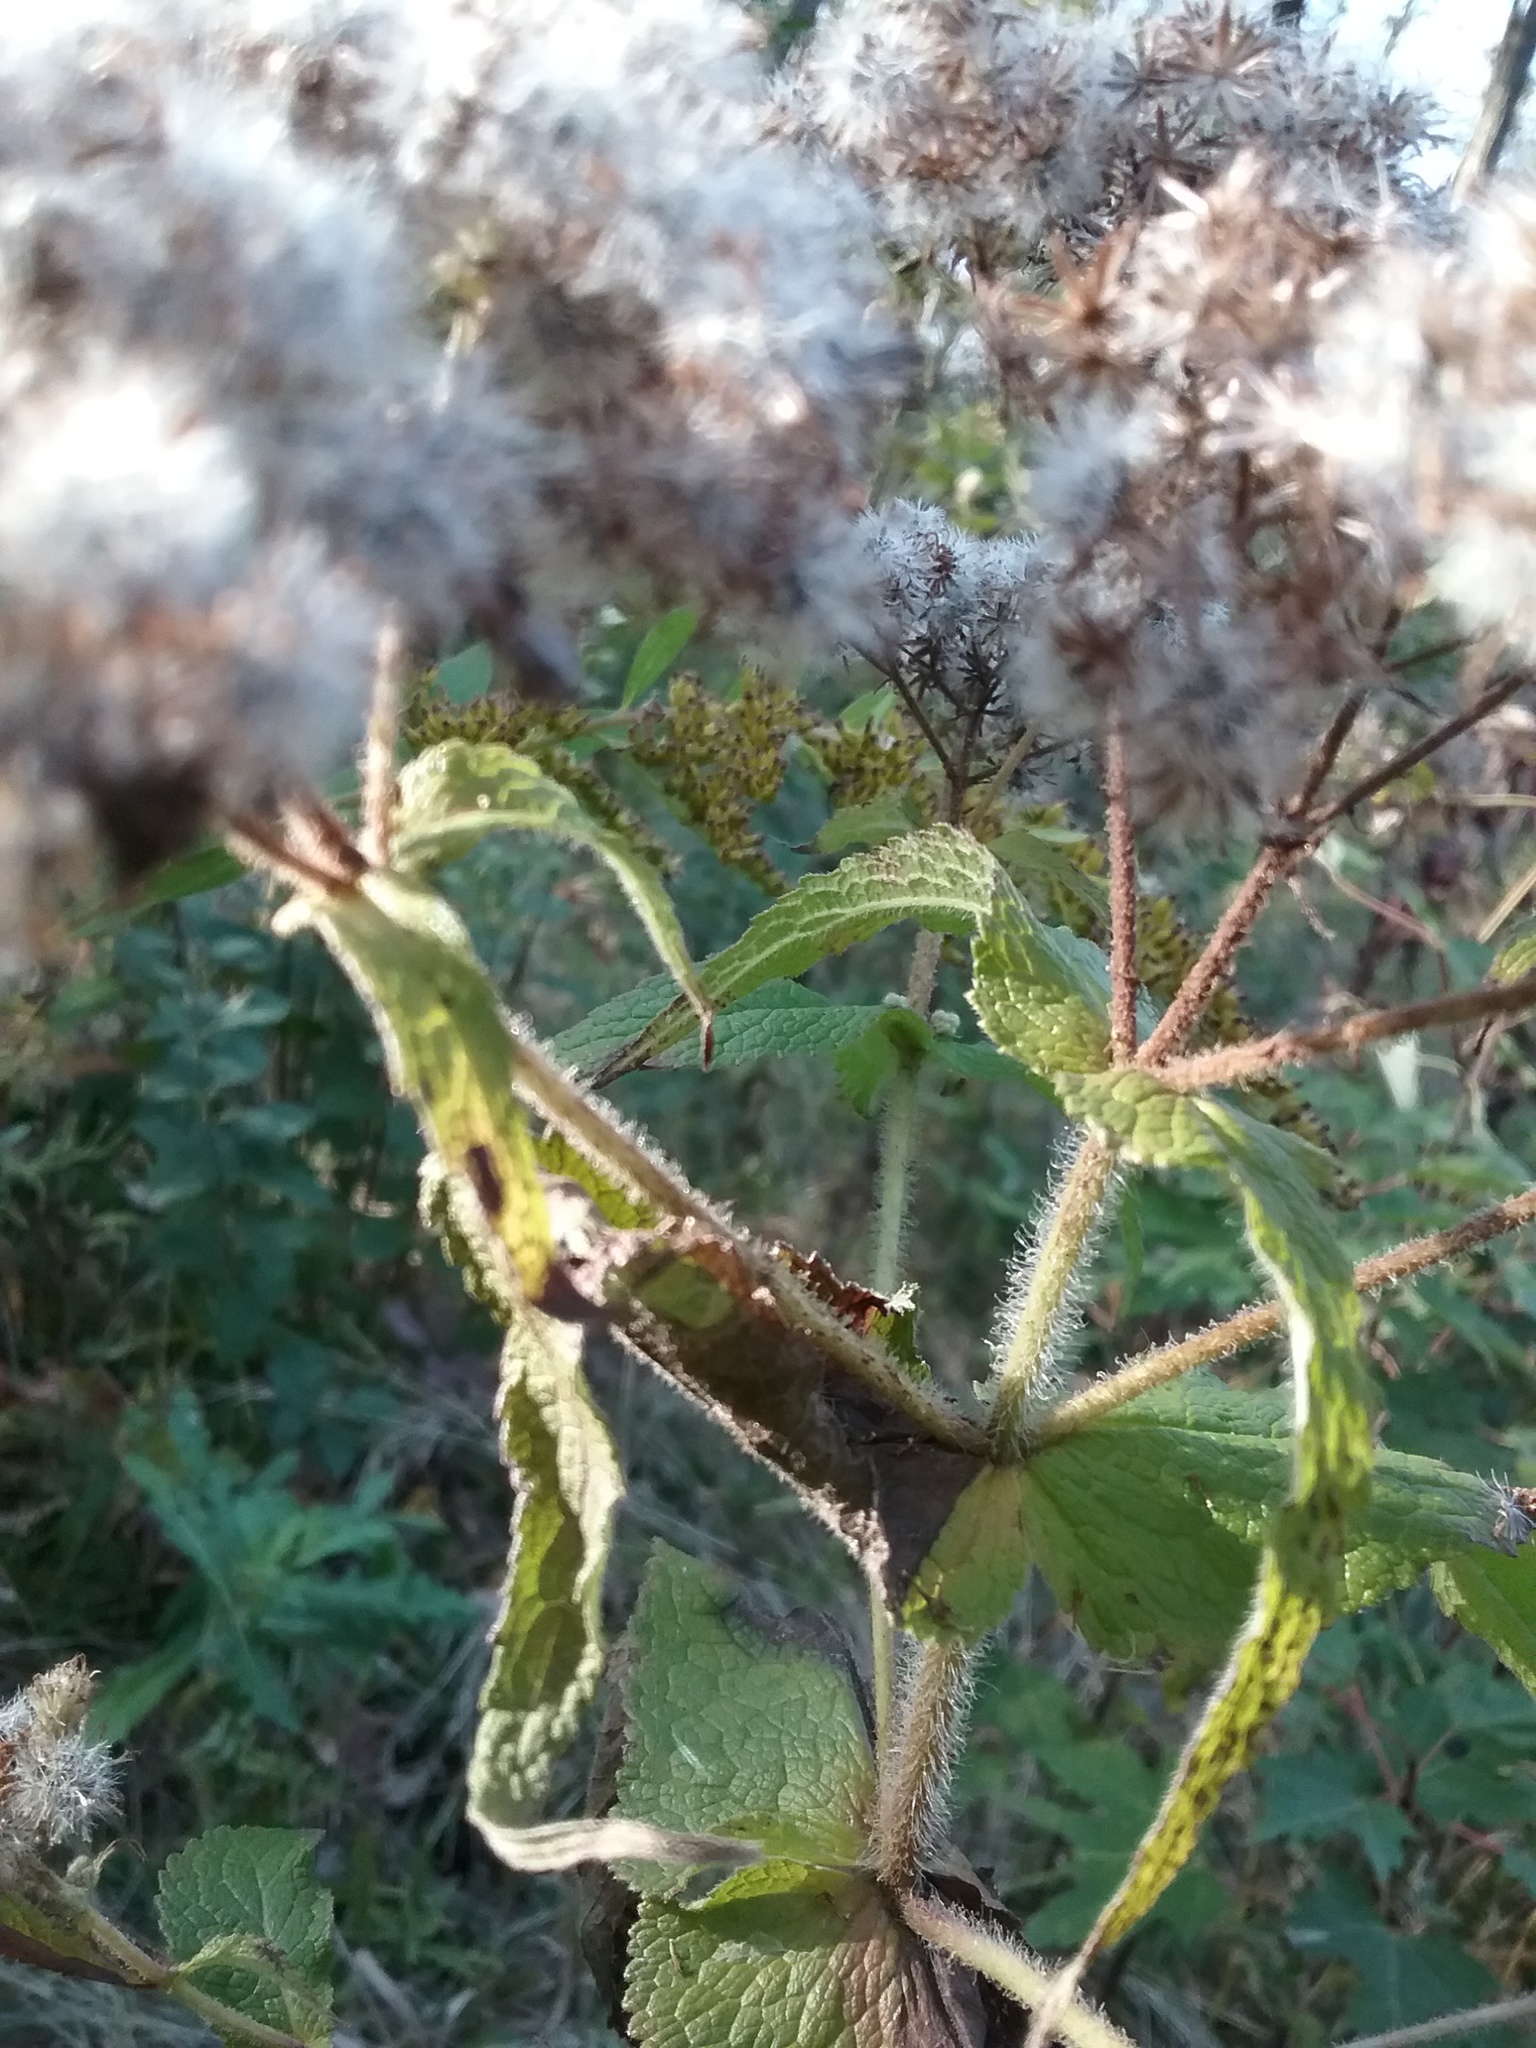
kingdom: Plantae
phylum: Tracheophyta
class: Magnoliopsida
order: Asterales
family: Asteraceae
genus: Eupatorium
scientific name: Eupatorium perfoliatum
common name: Boneset
